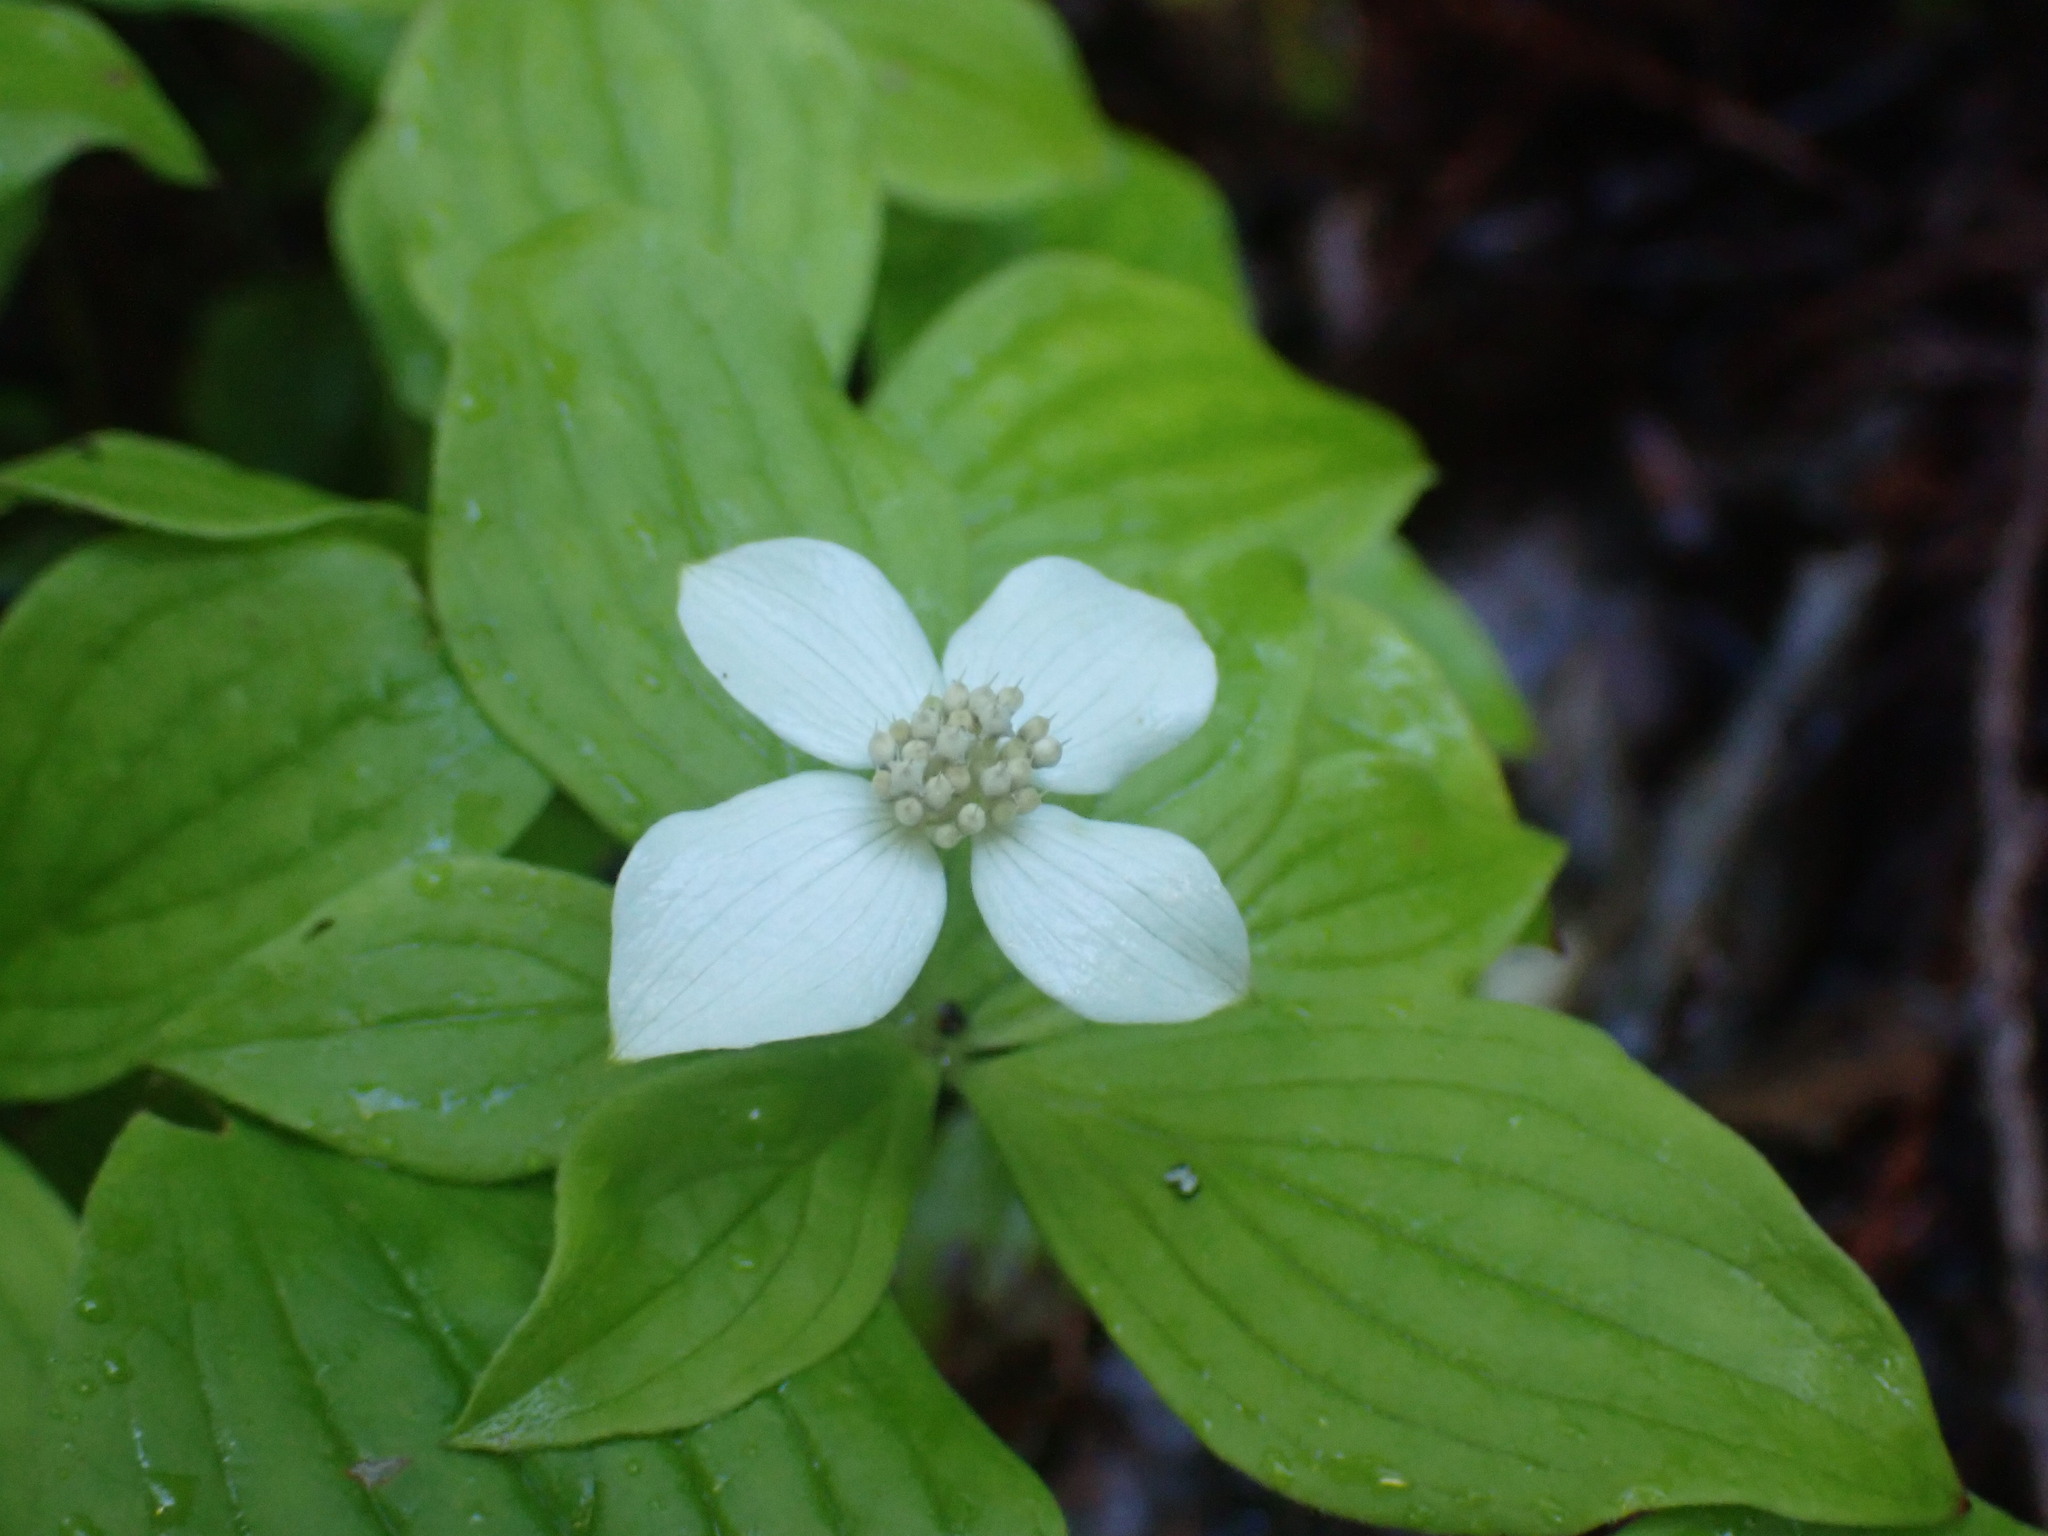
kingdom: Plantae
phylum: Tracheophyta
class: Magnoliopsida
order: Cornales
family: Cornaceae
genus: Cornus
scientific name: Cornus canadensis
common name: Creeping dogwood
